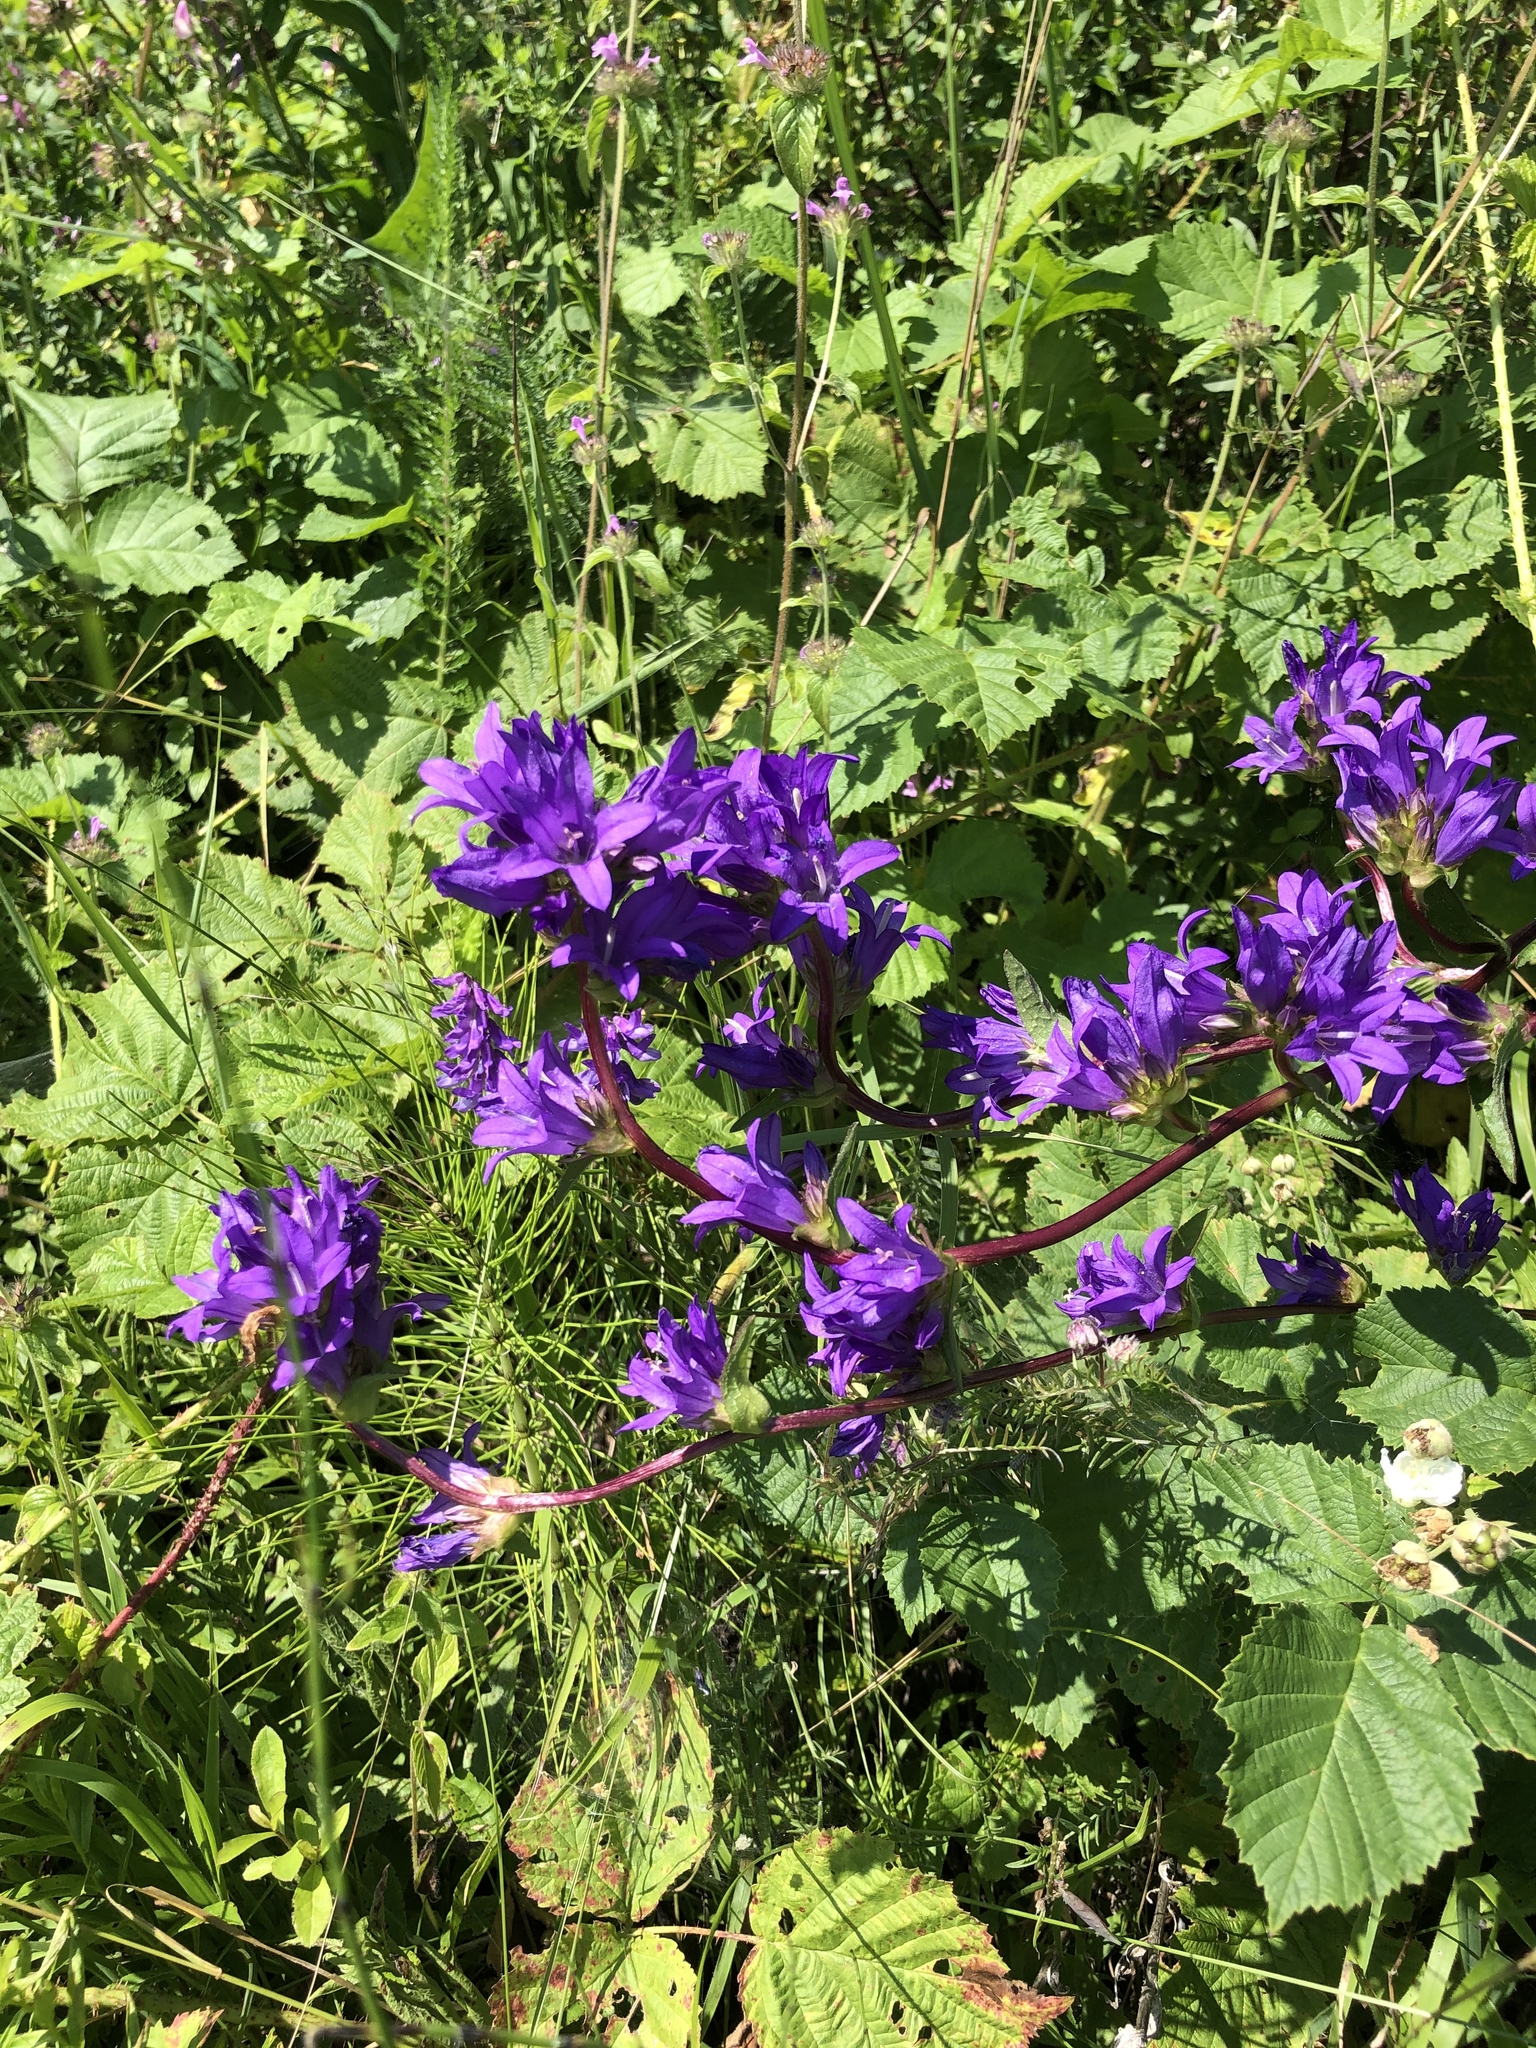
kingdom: Plantae
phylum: Tracheophyta
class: Magnoliopsida
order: Asterales
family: Campanulaceae
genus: Campanula
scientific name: Campanula glomerata
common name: Clustered bellflower
